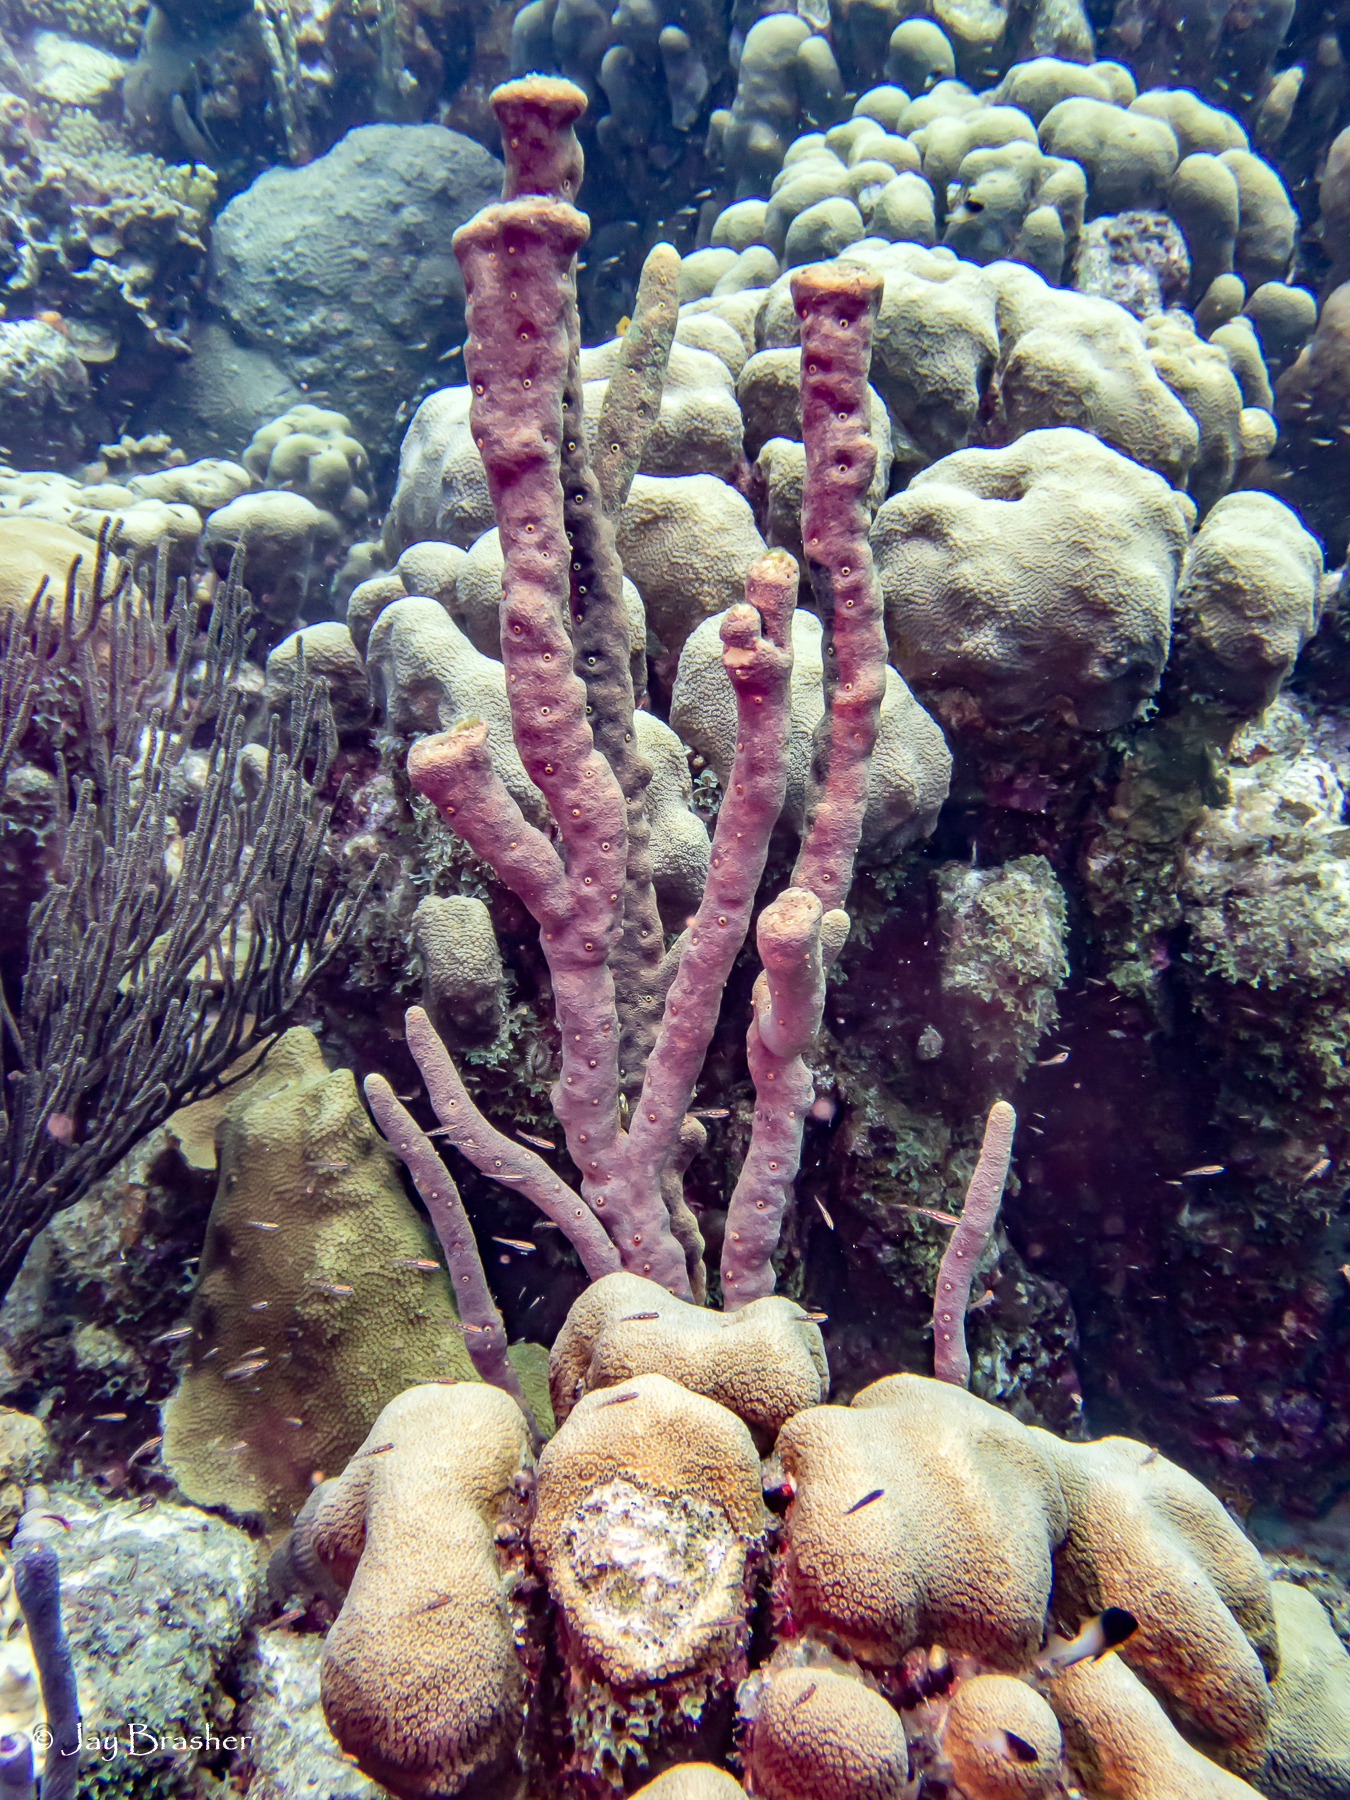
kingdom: Animalia
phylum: Cnidaria
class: Anthozoa
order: Scleractinia
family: Merulinidae
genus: Orbicella
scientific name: Orbicella annularis
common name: Boulder star coral
